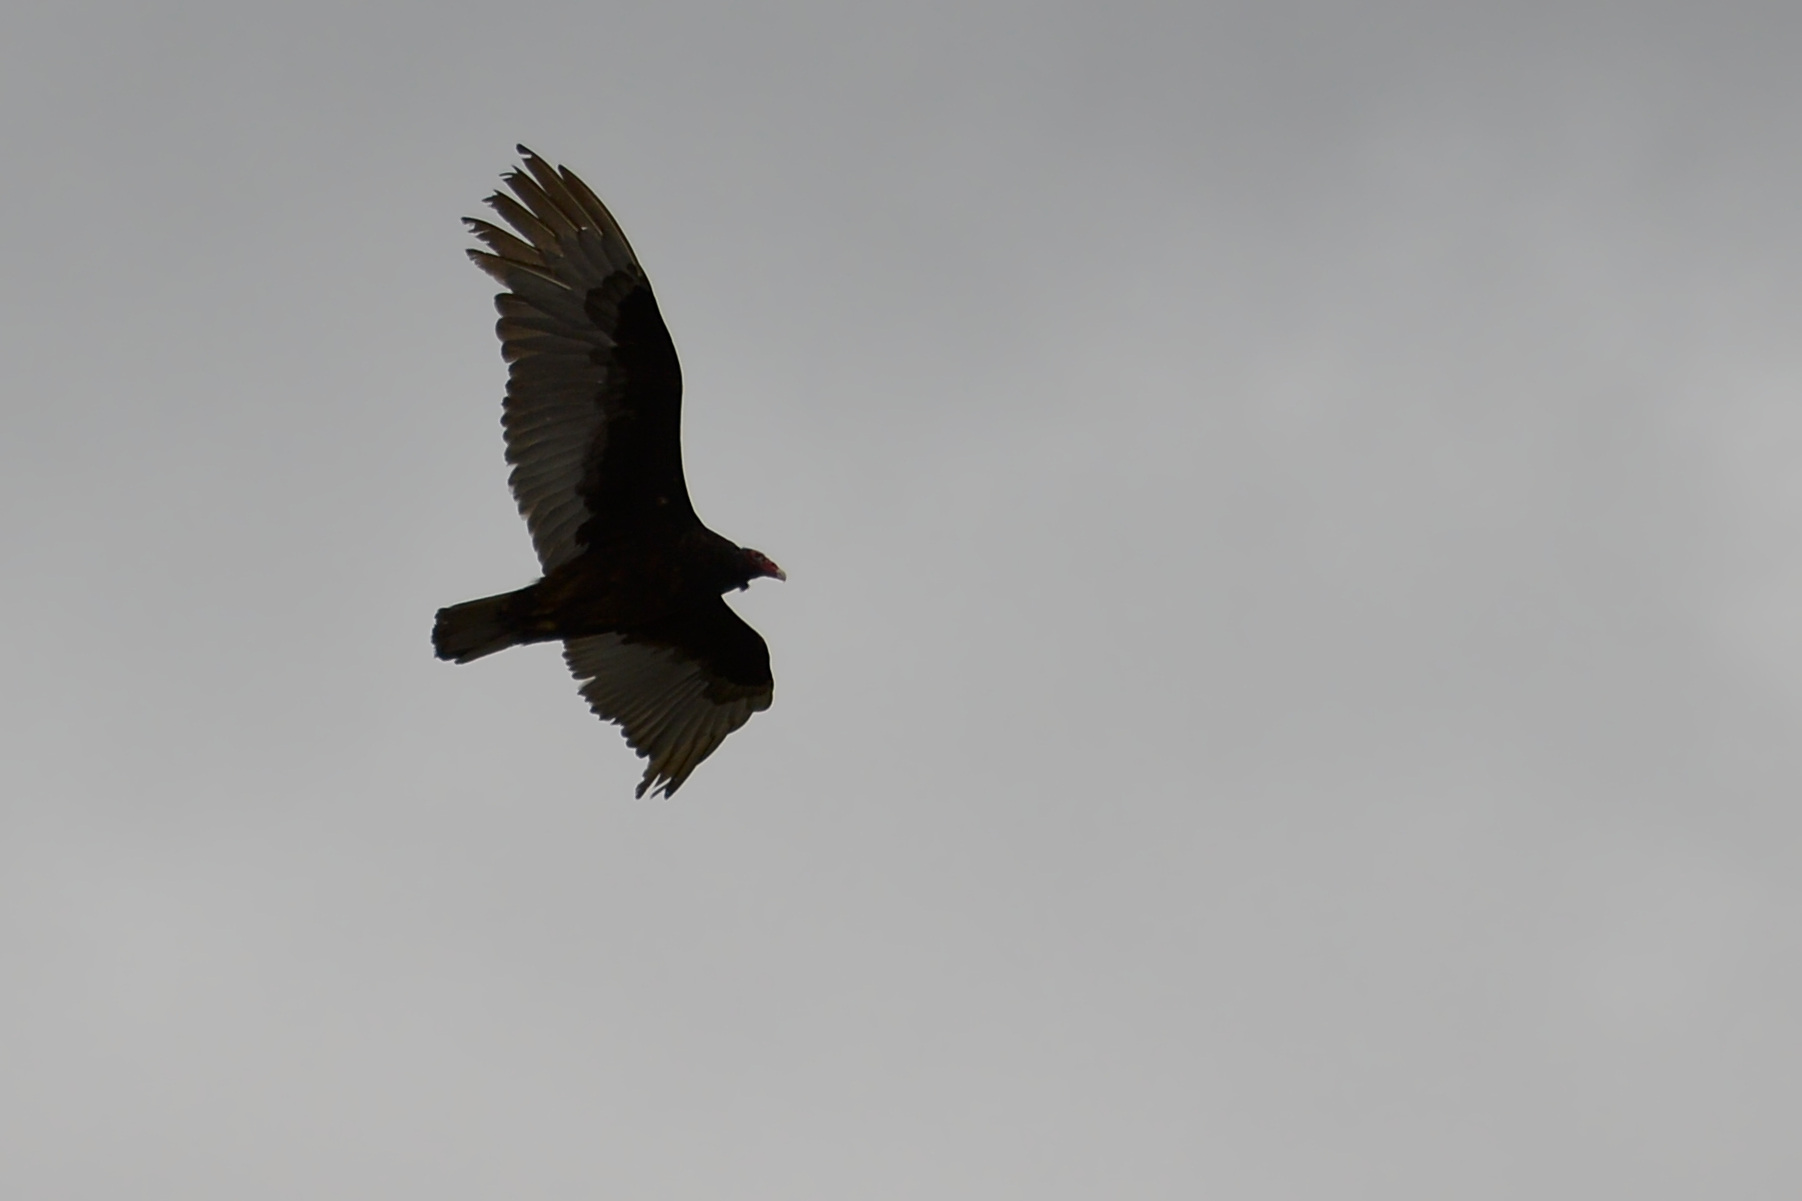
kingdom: Animalia
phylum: Chordata
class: Aves
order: Accipitriformes
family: Cathartidae
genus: Cathartes
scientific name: Cathartes aura
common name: Turkey vulture
